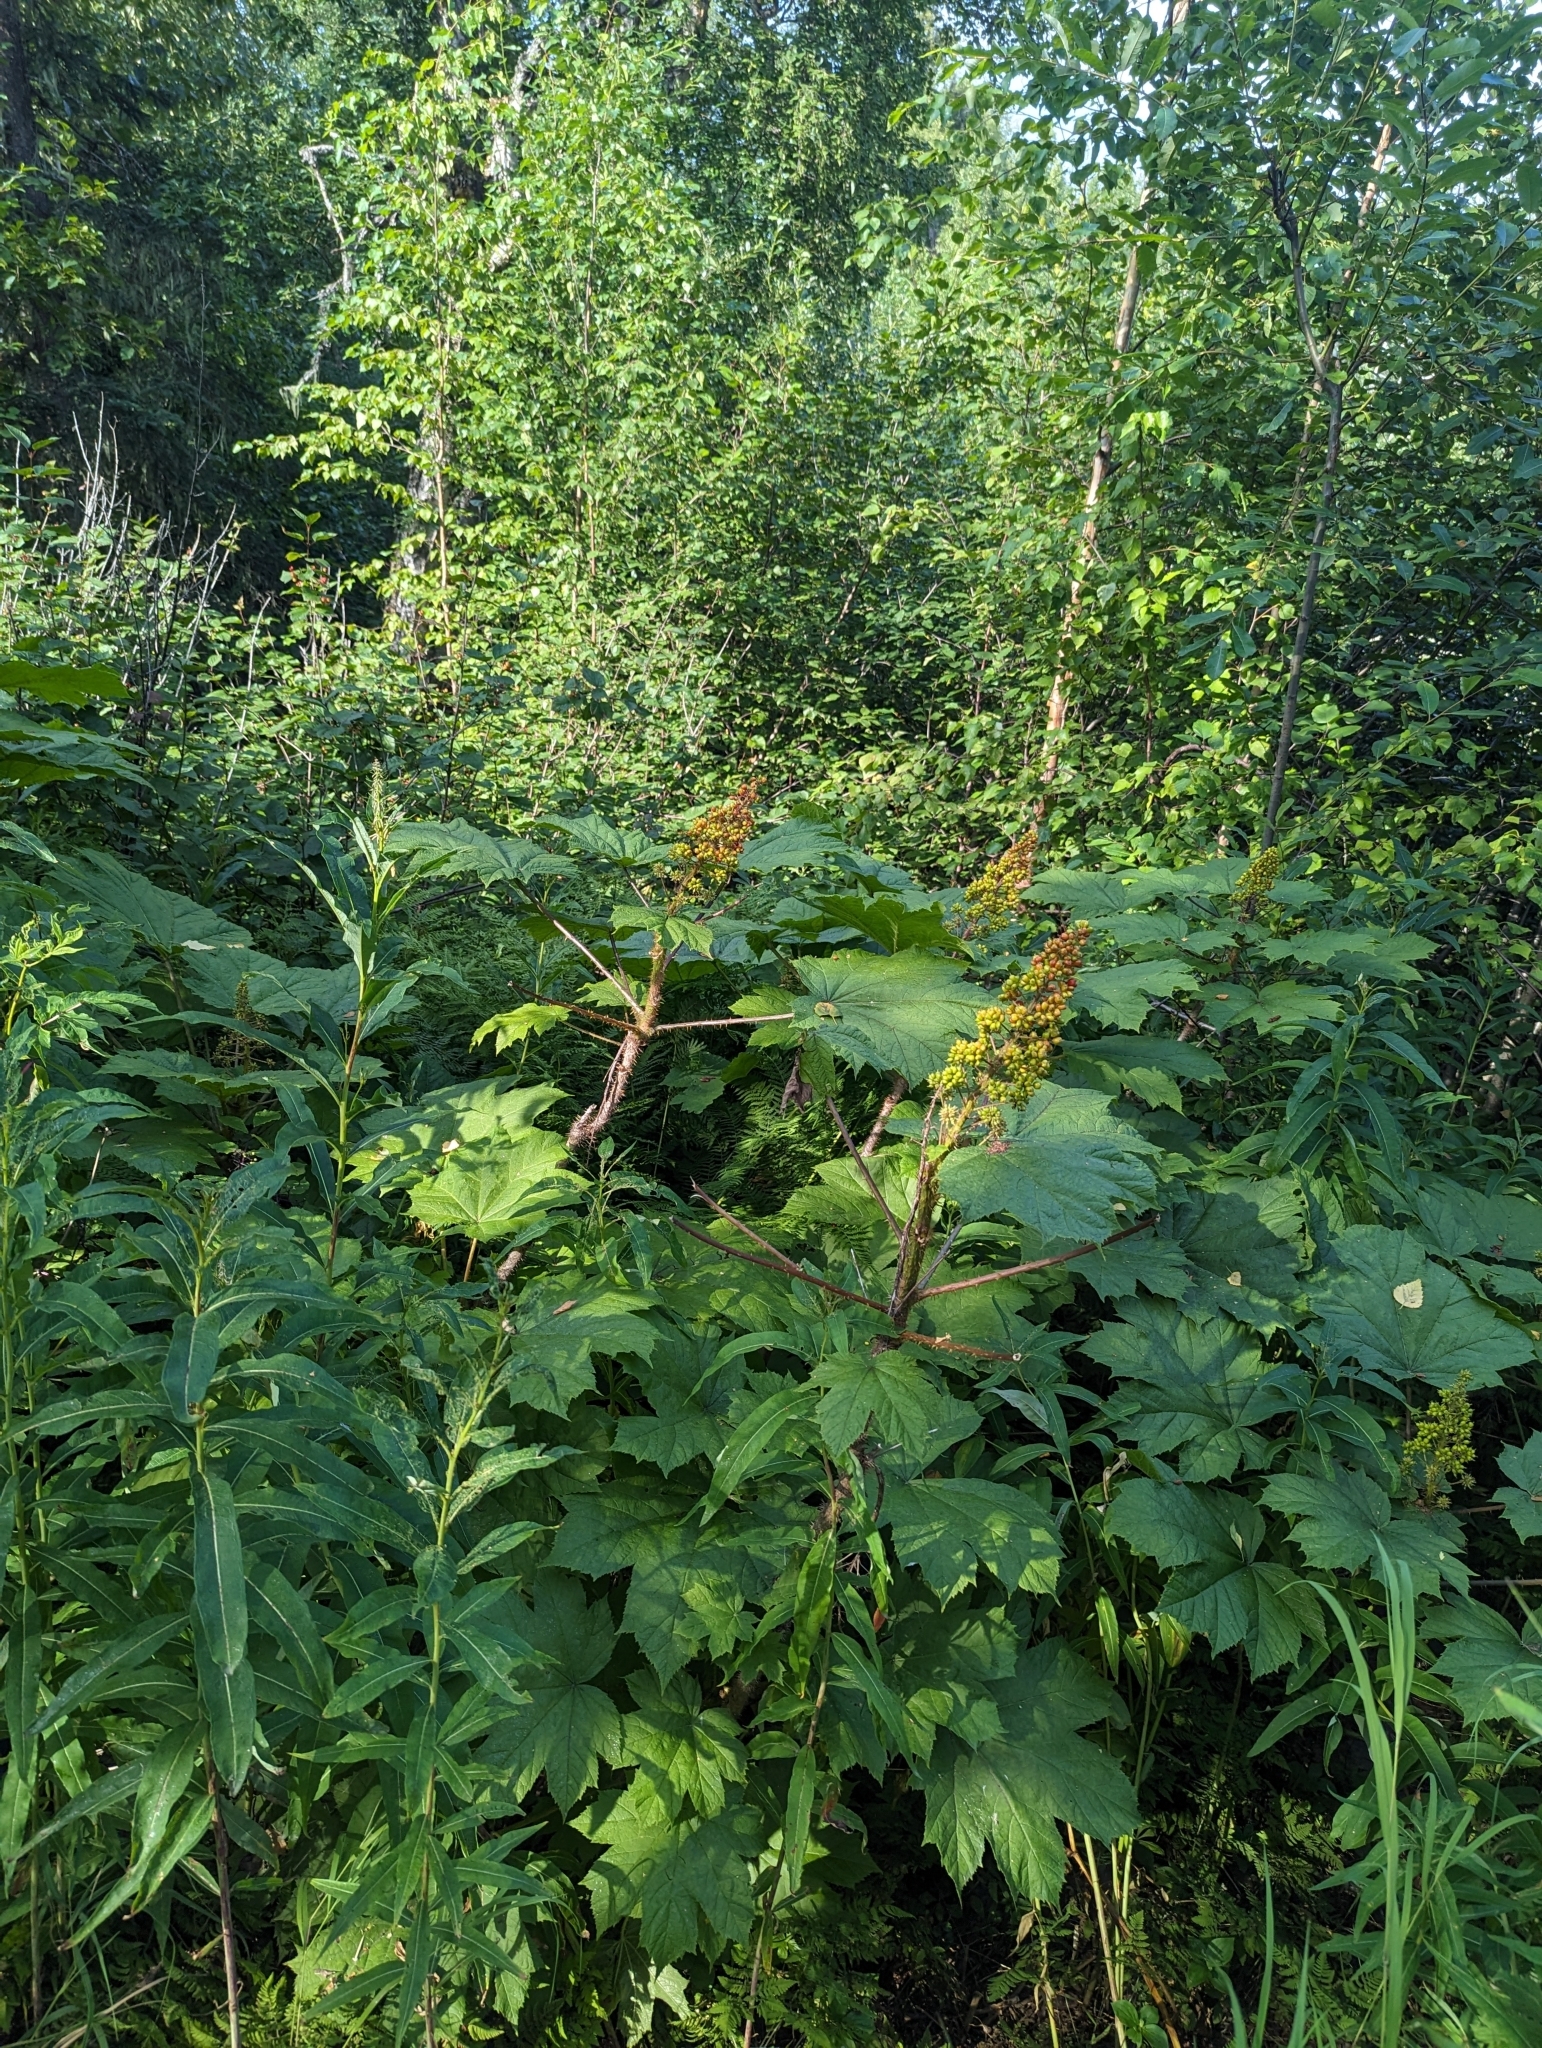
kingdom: Plantae
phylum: Tracheophyta
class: Magnoliopsida
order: Apiales
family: Araliaceae
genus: Oplopanax
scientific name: Oplopanax horridus
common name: Devil's walking-stick
